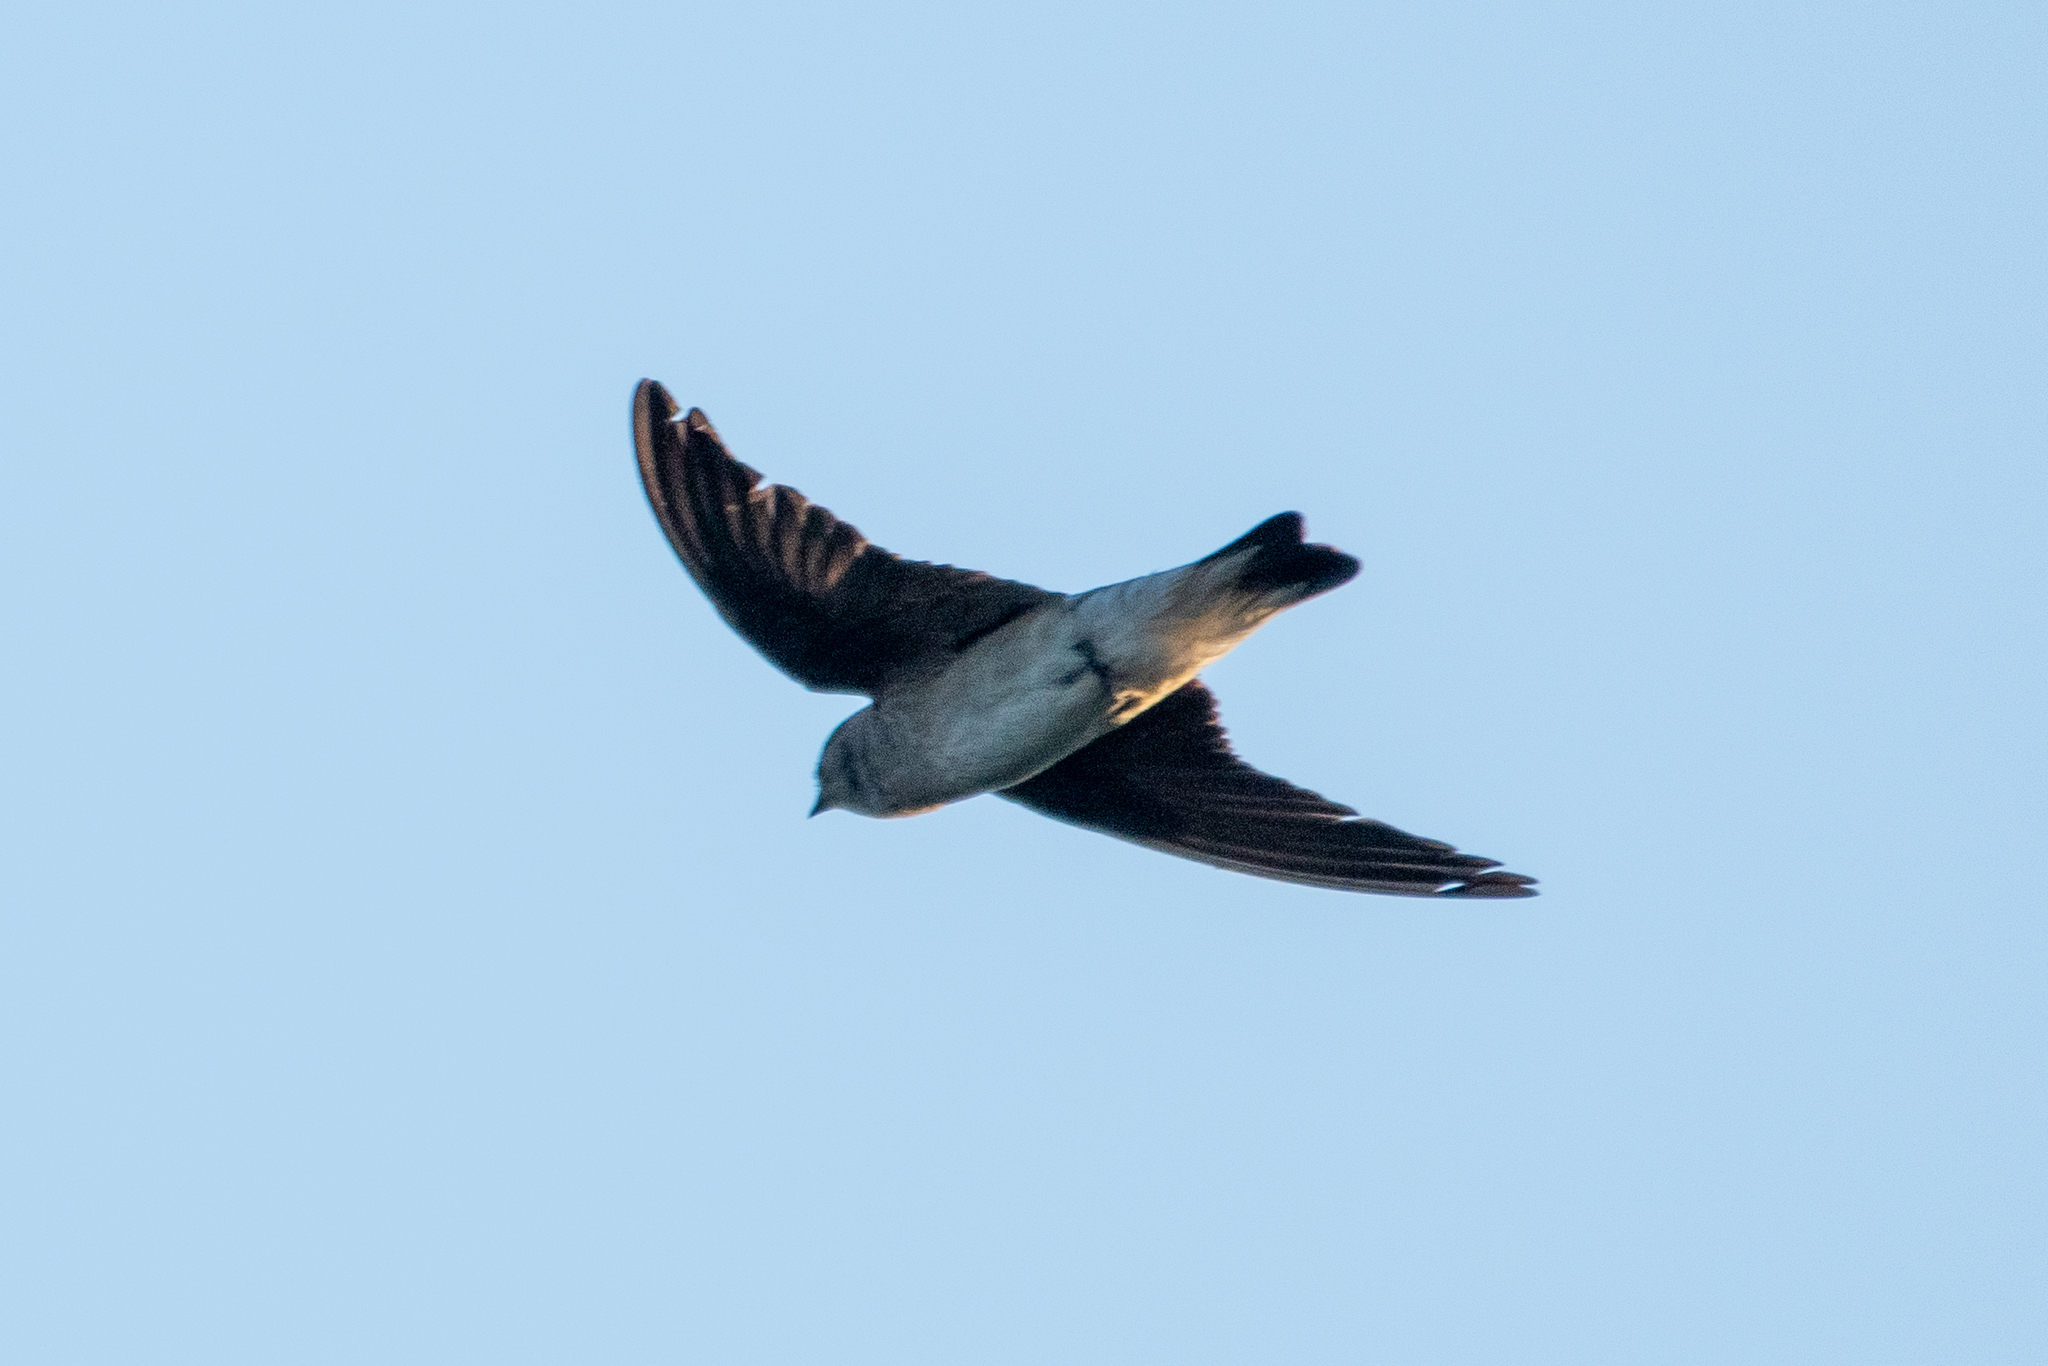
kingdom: Animalia
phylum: Chordata
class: Aves
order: Passeriformes
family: Hirundinidae
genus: Stelgidopteryx
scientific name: Stelgidopteryx serripennis
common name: Northern rough-winged swallow
